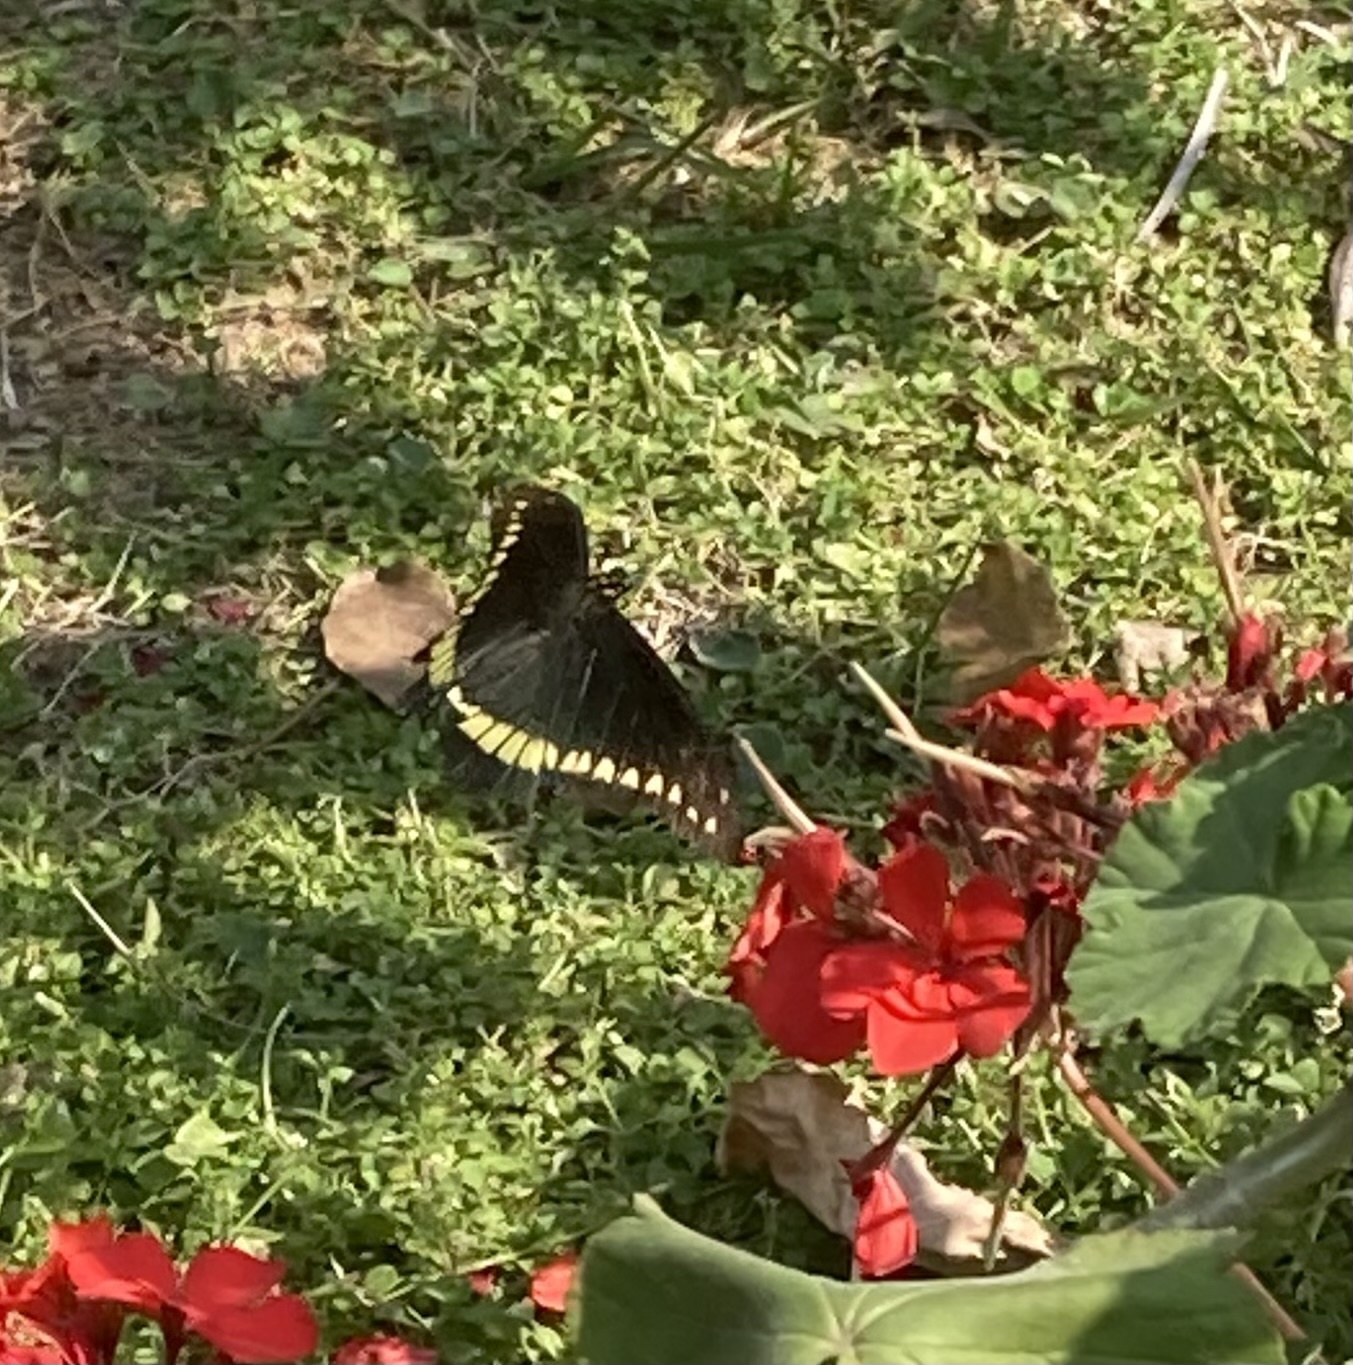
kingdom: Animalia
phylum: Arthropoda
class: Insecta
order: Lepidoptera
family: Papilionidae
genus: Battus
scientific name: Battus polydamas
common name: Polydamas swallowtail
